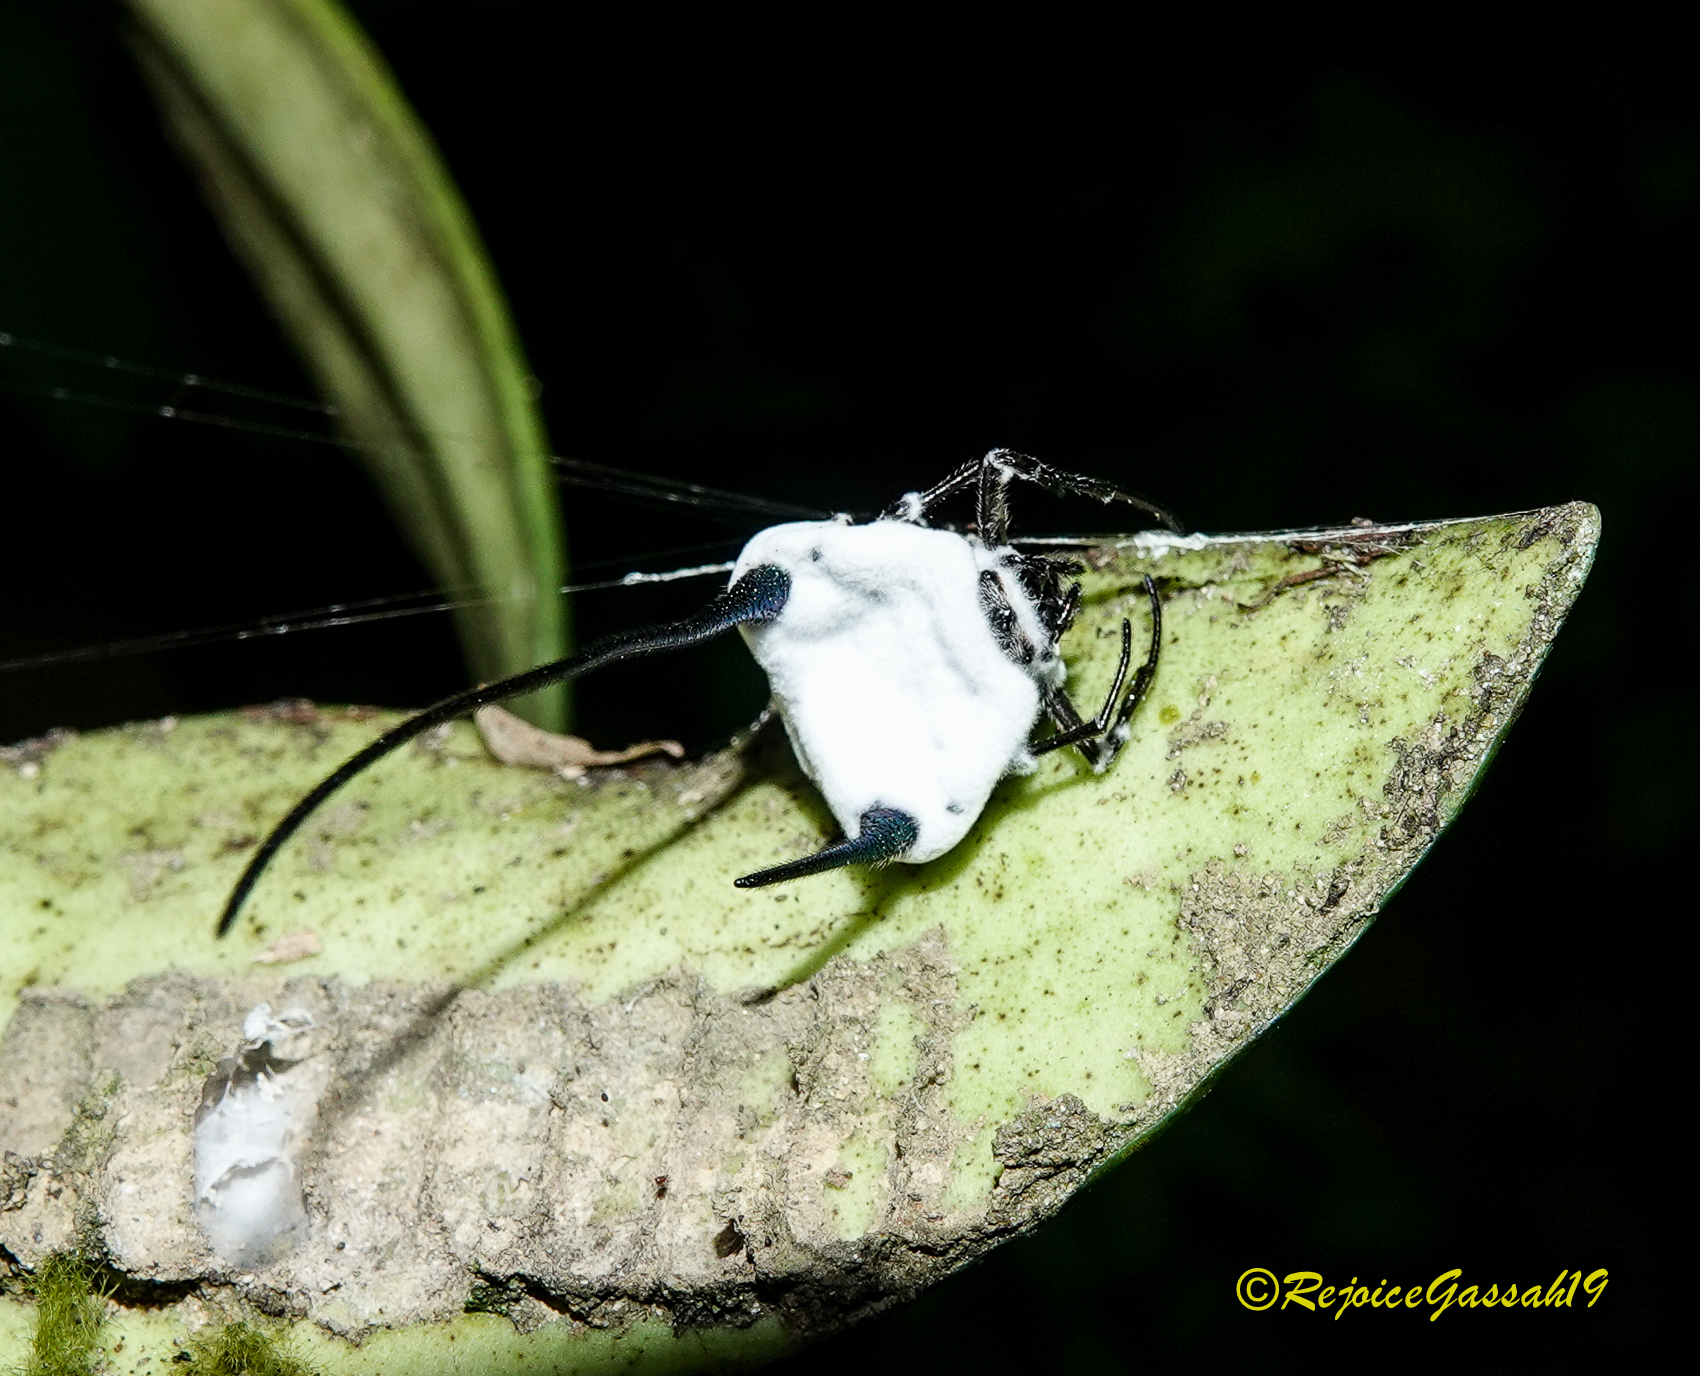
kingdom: Animalia
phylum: Arthropoda
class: Arachnida
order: Araneae
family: Araneidae
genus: Macracantha
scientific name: Macracantha arcuata
